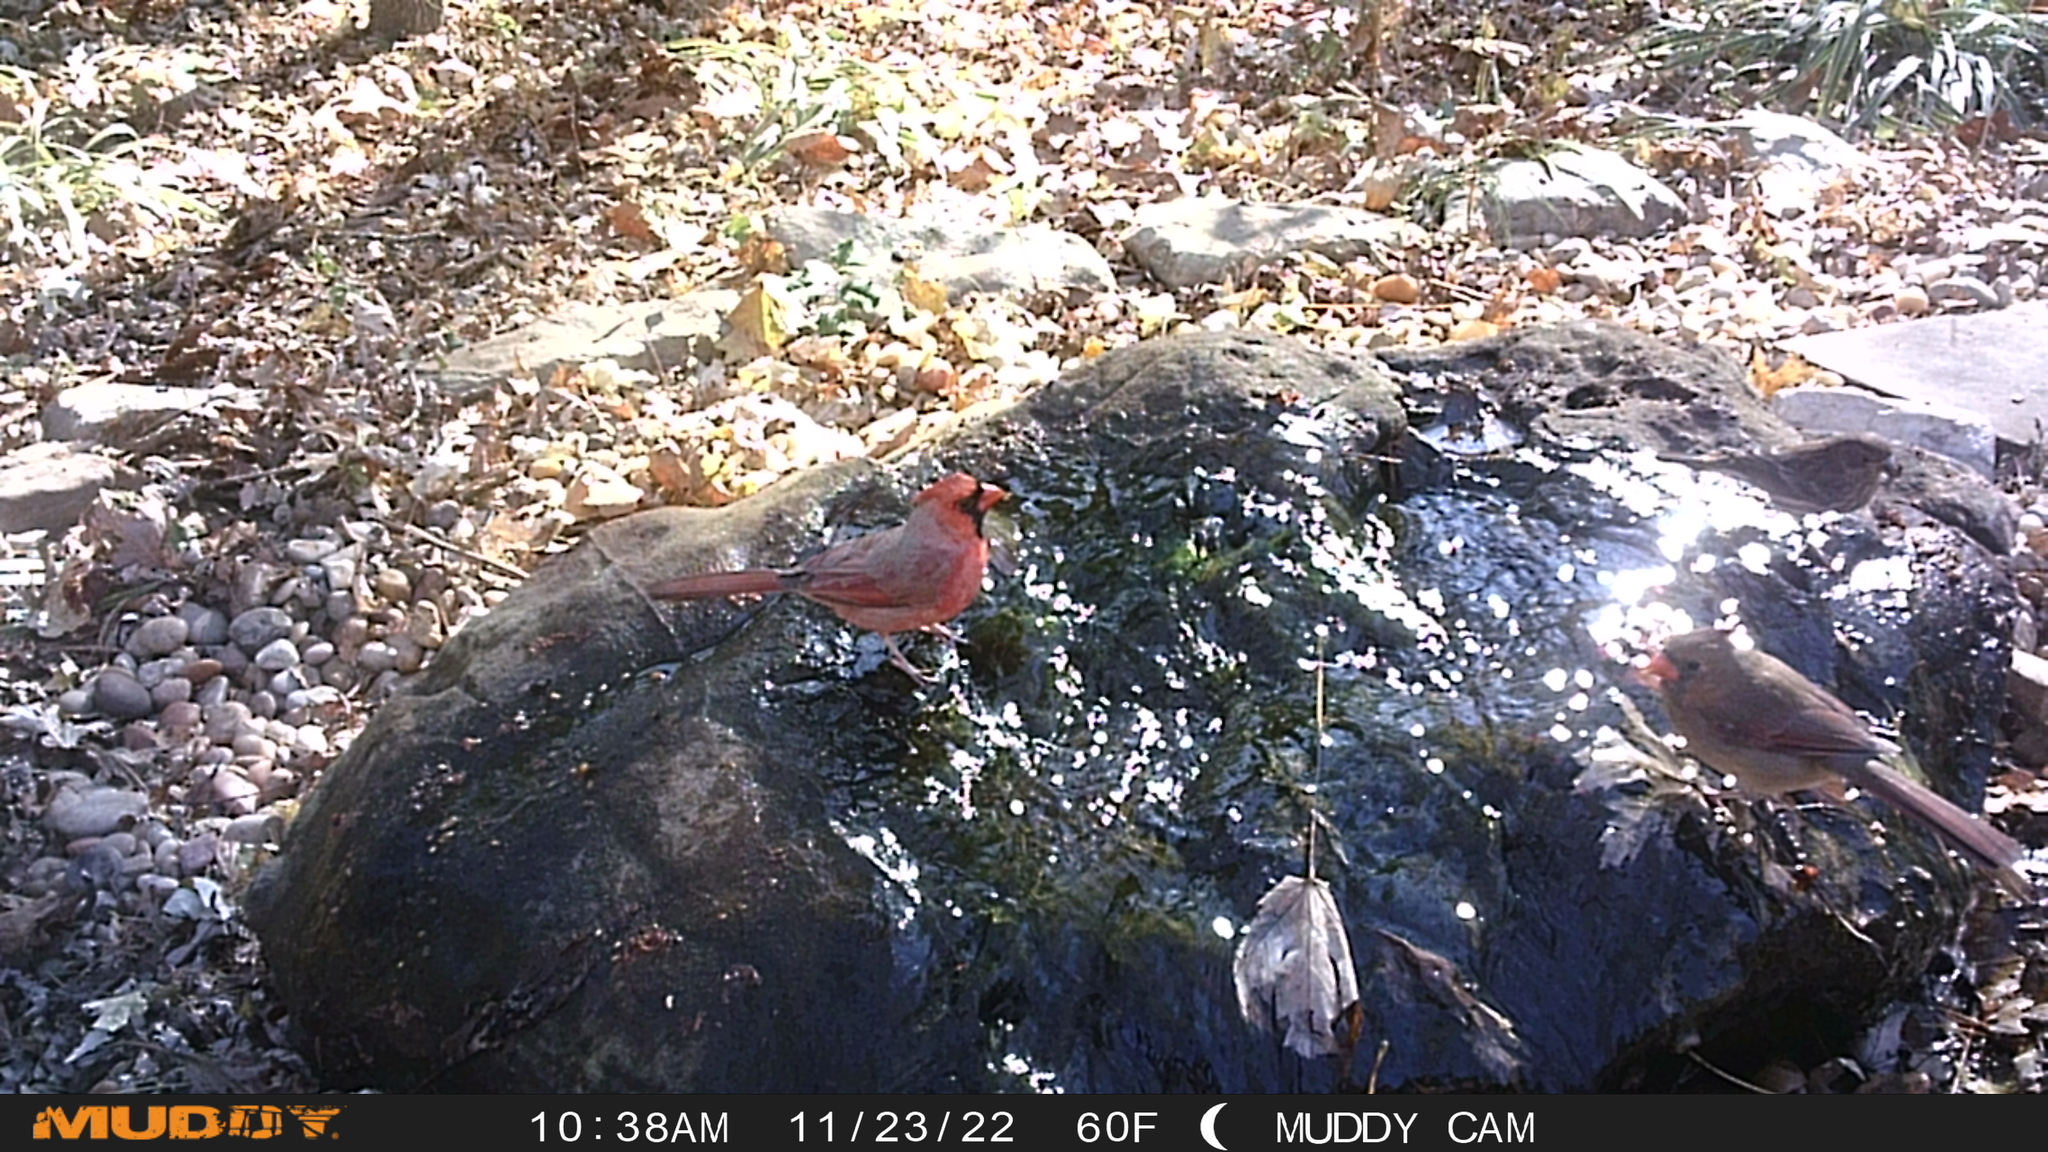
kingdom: Animalia
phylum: Chordata
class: Aves
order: Passeriformes
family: Cardinalidae
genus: Cardinalis
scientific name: Cardinalis cardinalis
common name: Northern cardinal
